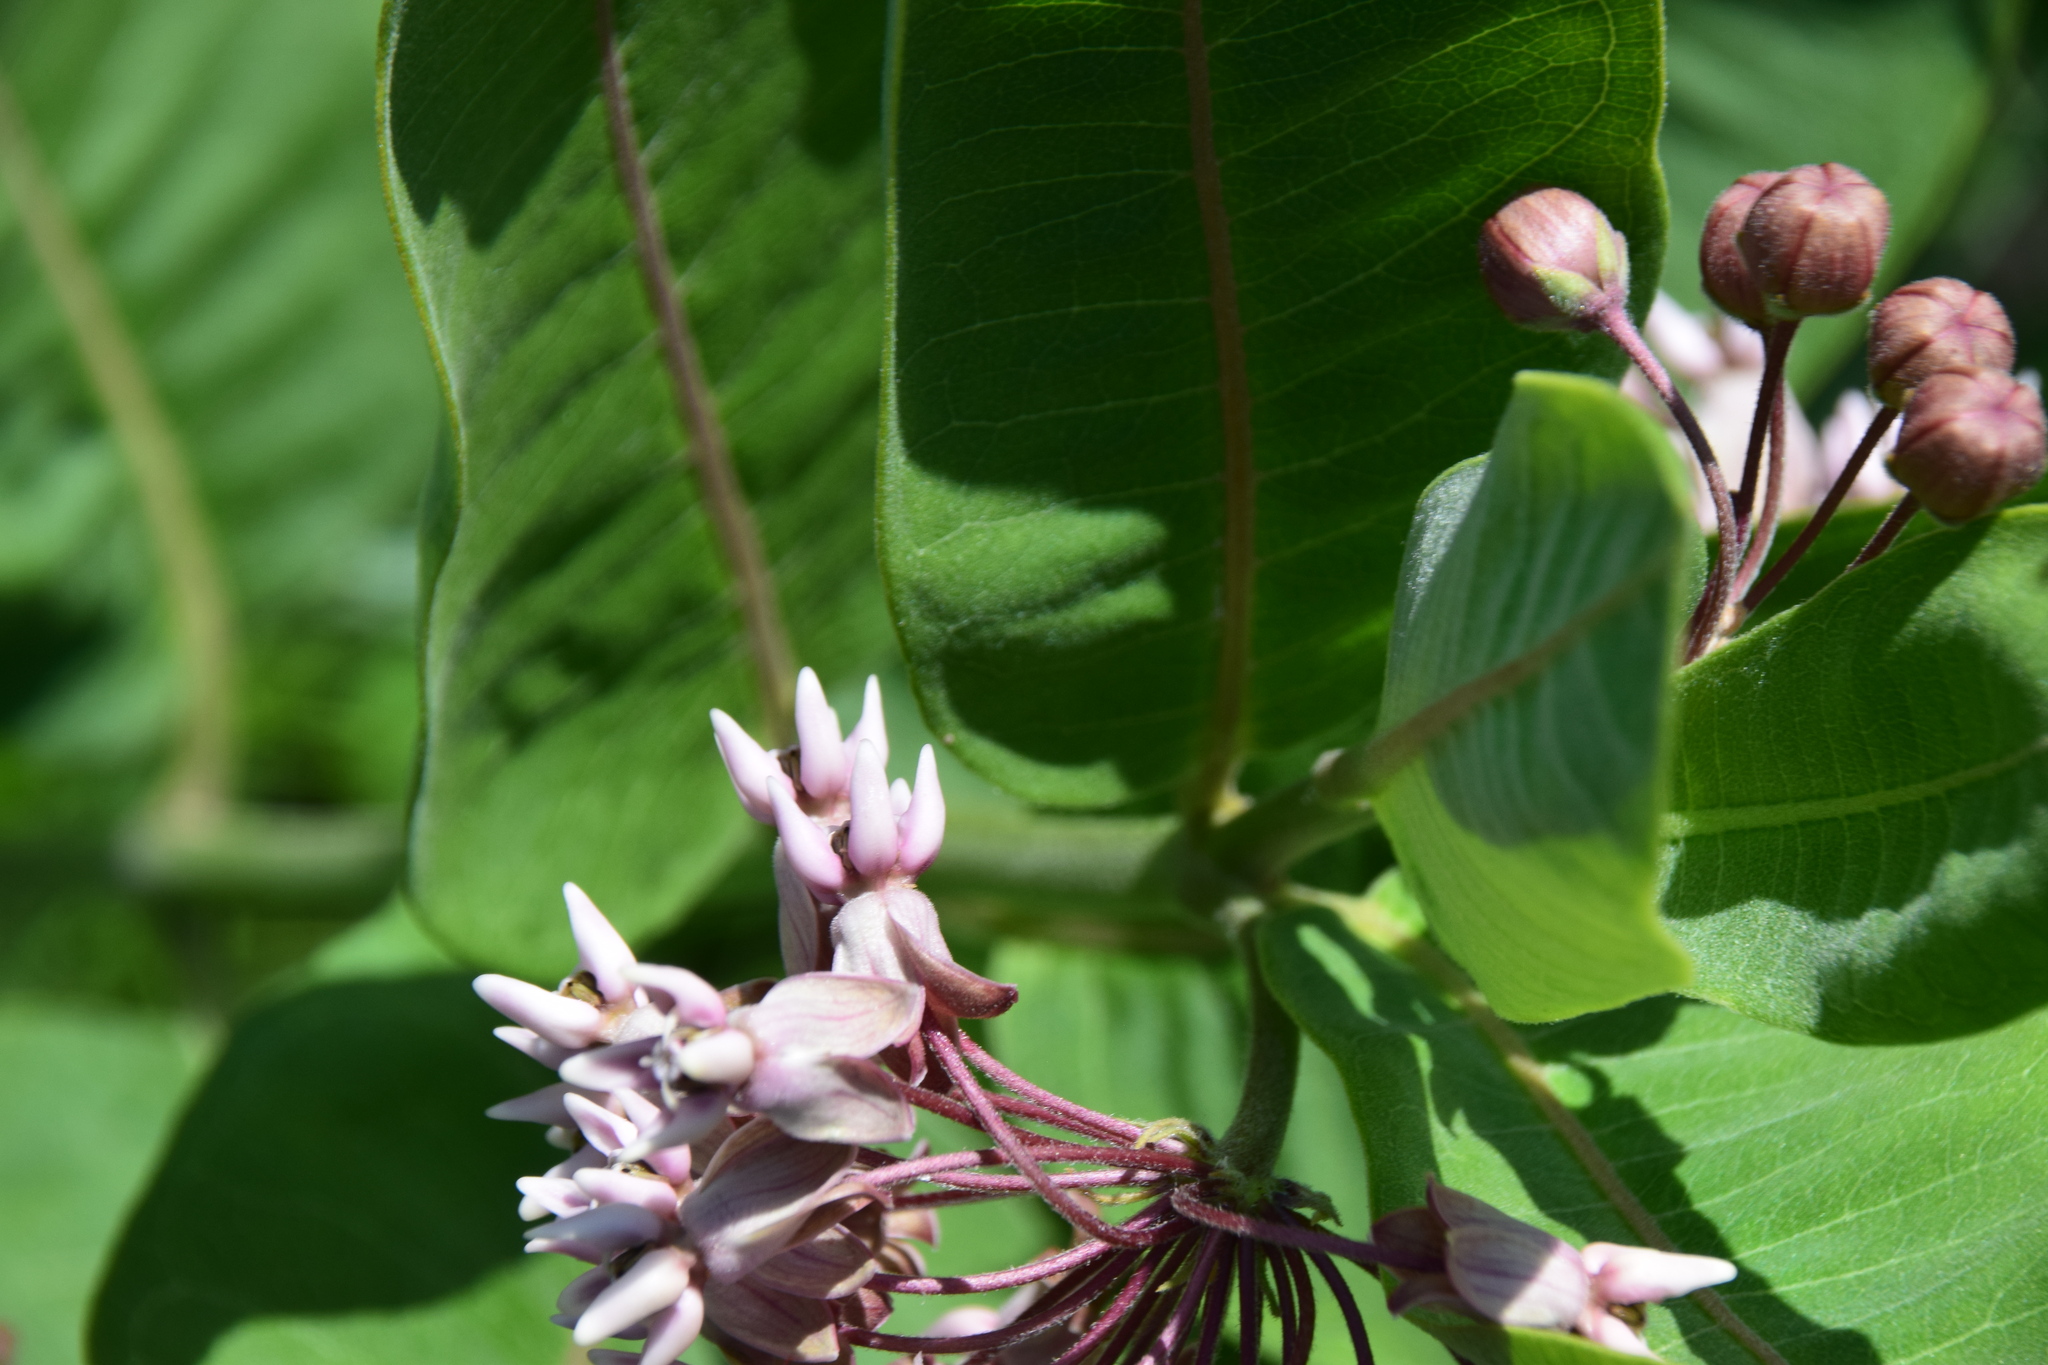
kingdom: Plantae
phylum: Tracheophyta
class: Magnoliopsida
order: Gentianales
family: Apocynaceae
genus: Asclepias
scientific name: Asclepias syriaca
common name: Common milkweed
